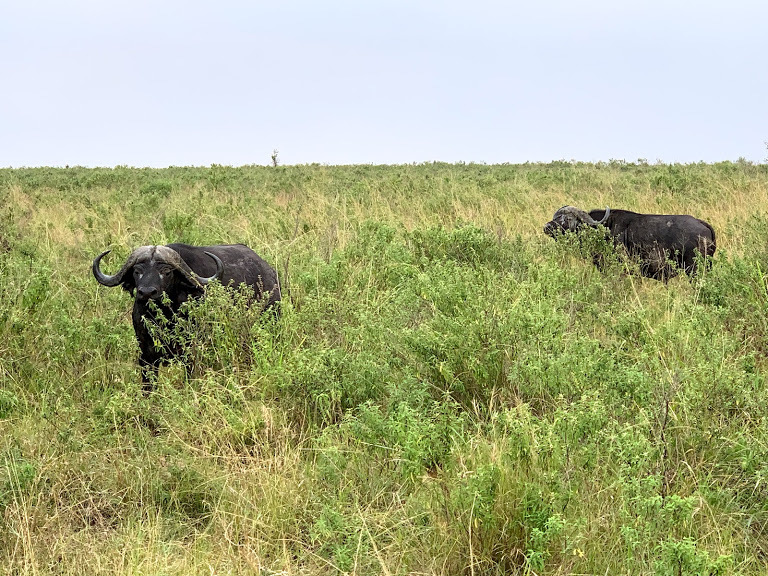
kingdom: Animalia
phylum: Chordata
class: Mammalia
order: Artiodactyla
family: Bovidae
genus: Syncerus
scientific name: Syncerus caffer
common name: African buffalo
